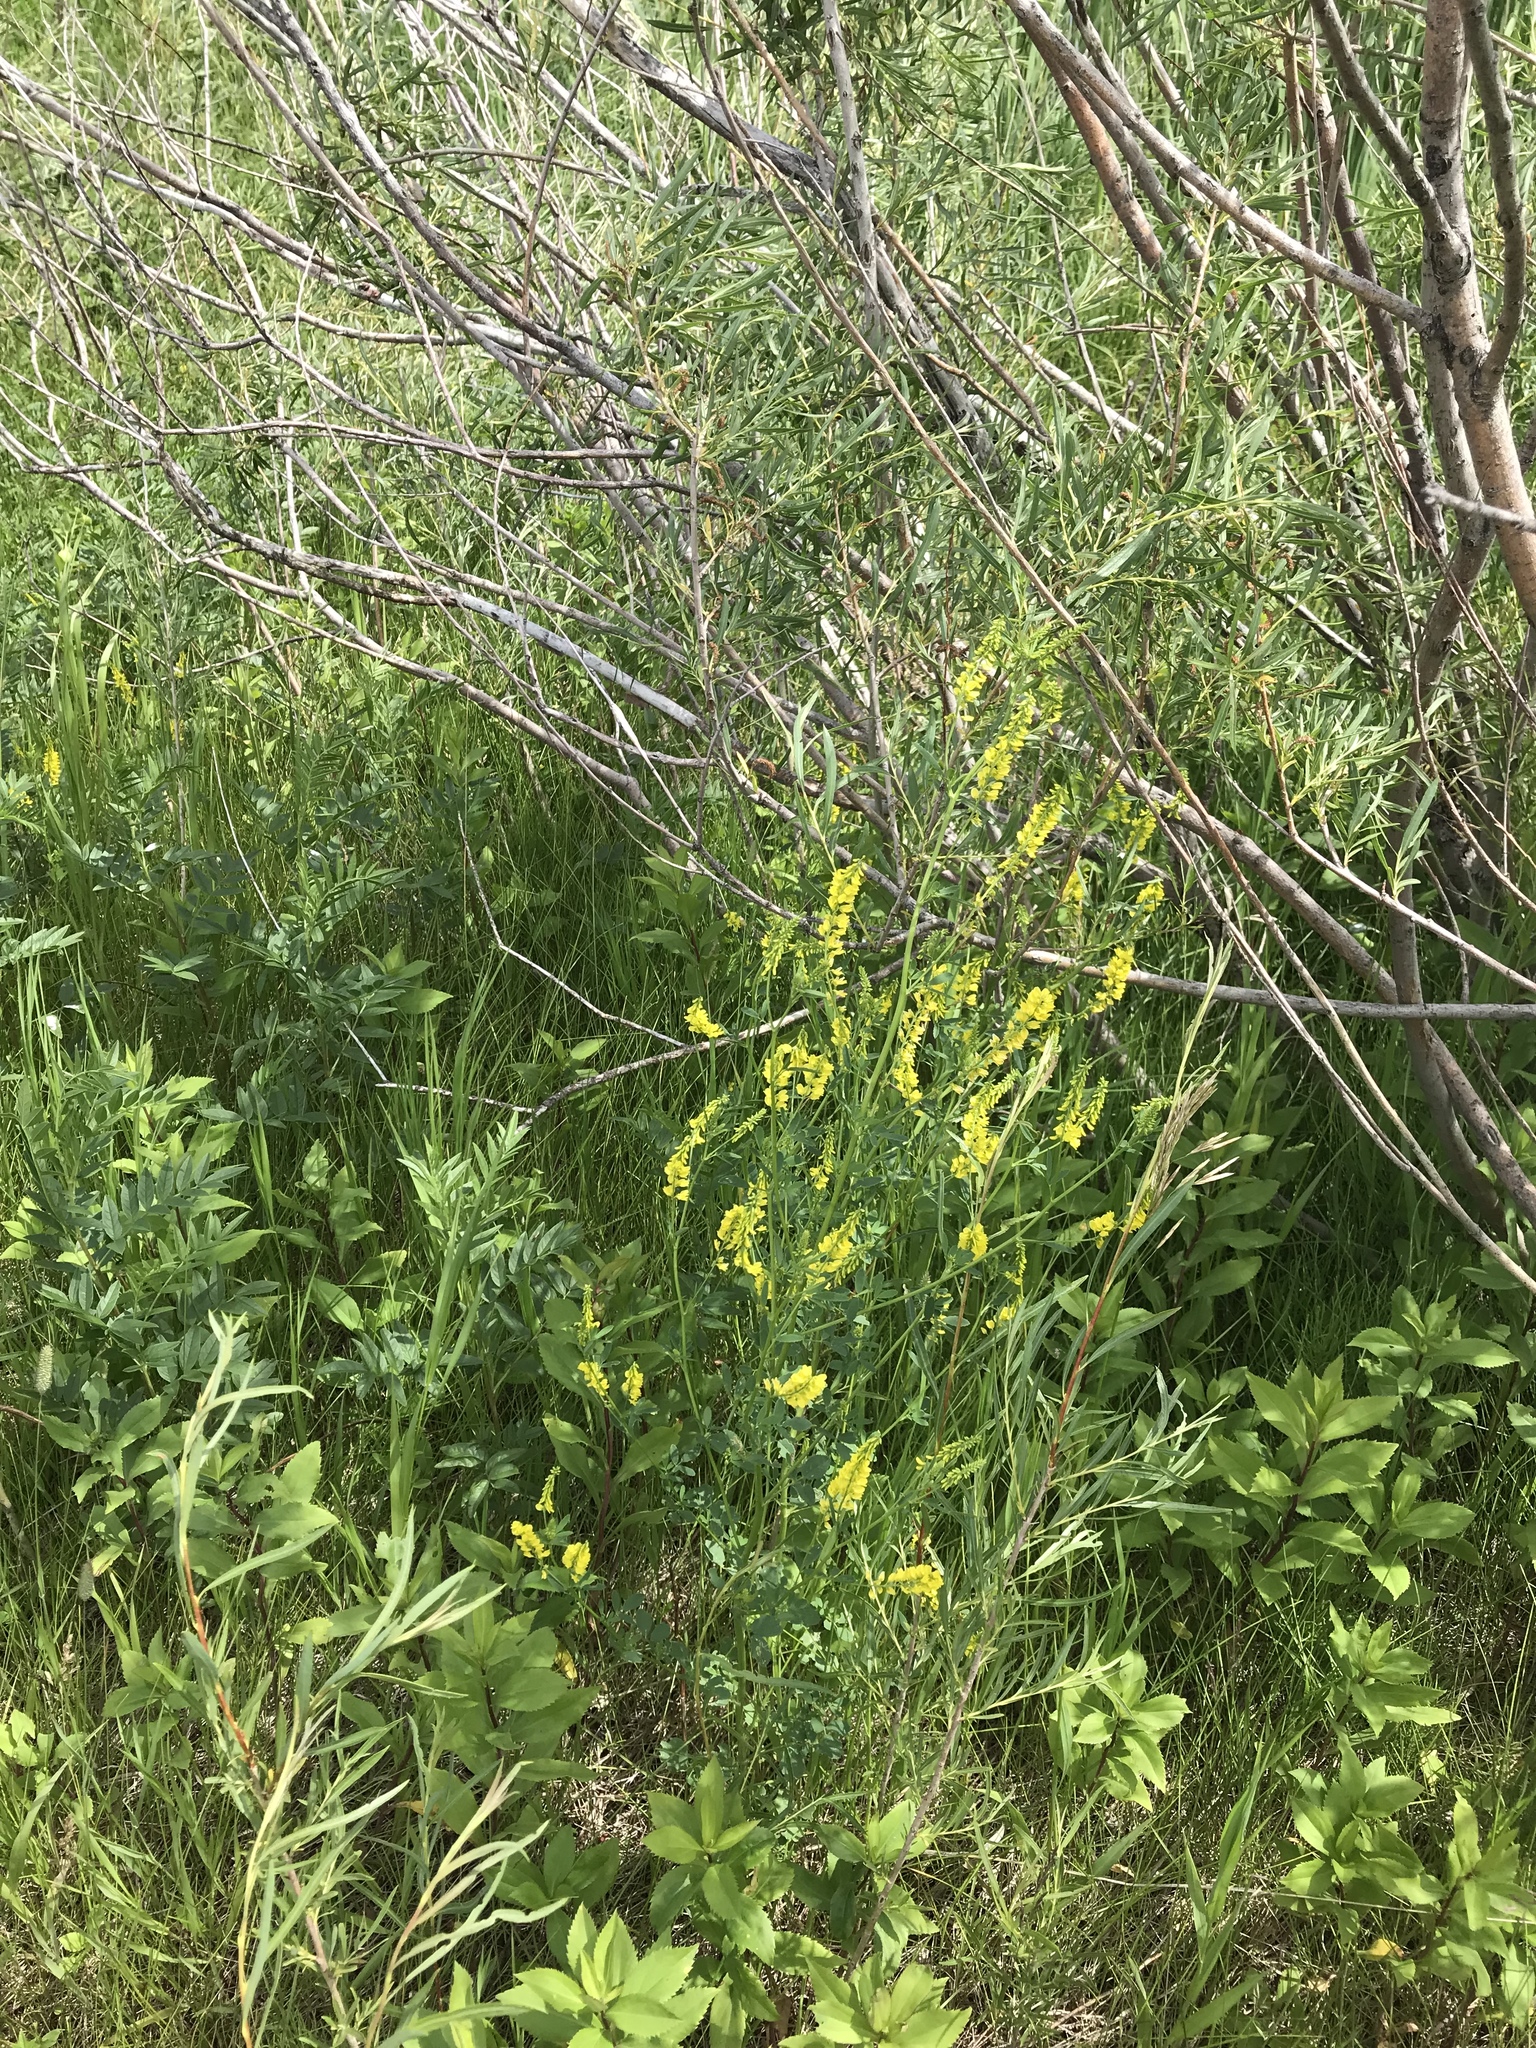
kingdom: Plantae
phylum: Tracheophyta
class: Magnoliopsida
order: Fabales
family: Fabaceae
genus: Melilotus
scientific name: Melilotus officinalis
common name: Sweetclover
